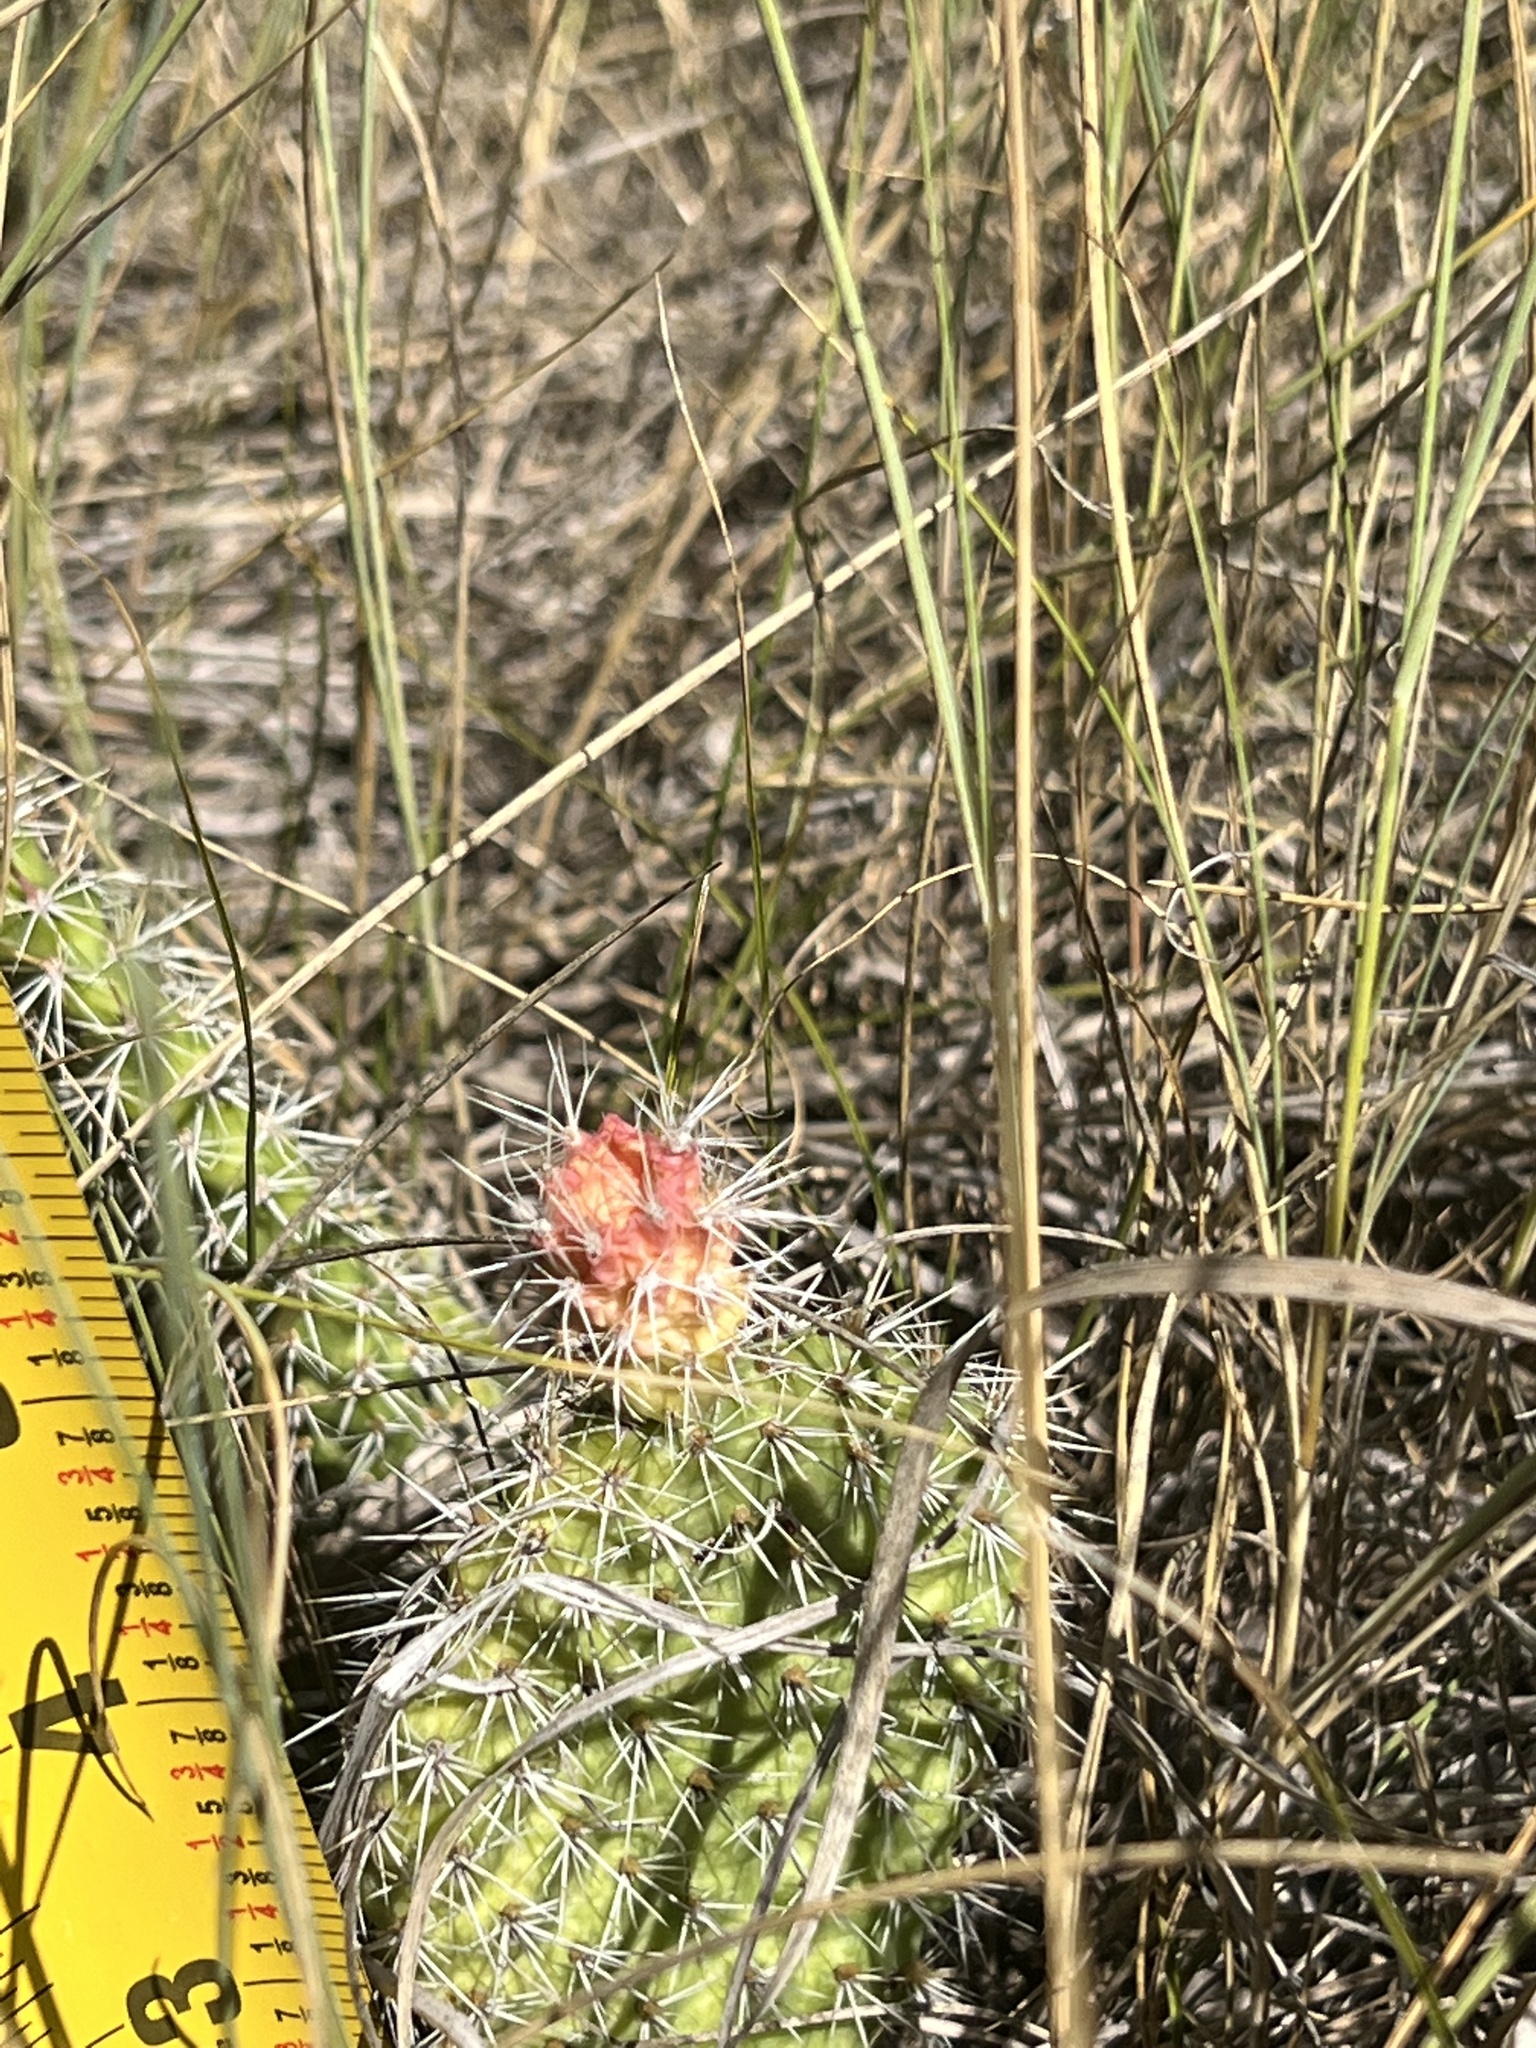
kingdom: Plantae
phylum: Tracheophyta
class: Magnoliopsida
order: Caryophyllales
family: Cactaceae
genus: Opuntia
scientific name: Opuntia polyacantha
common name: Plains prickly-pear
